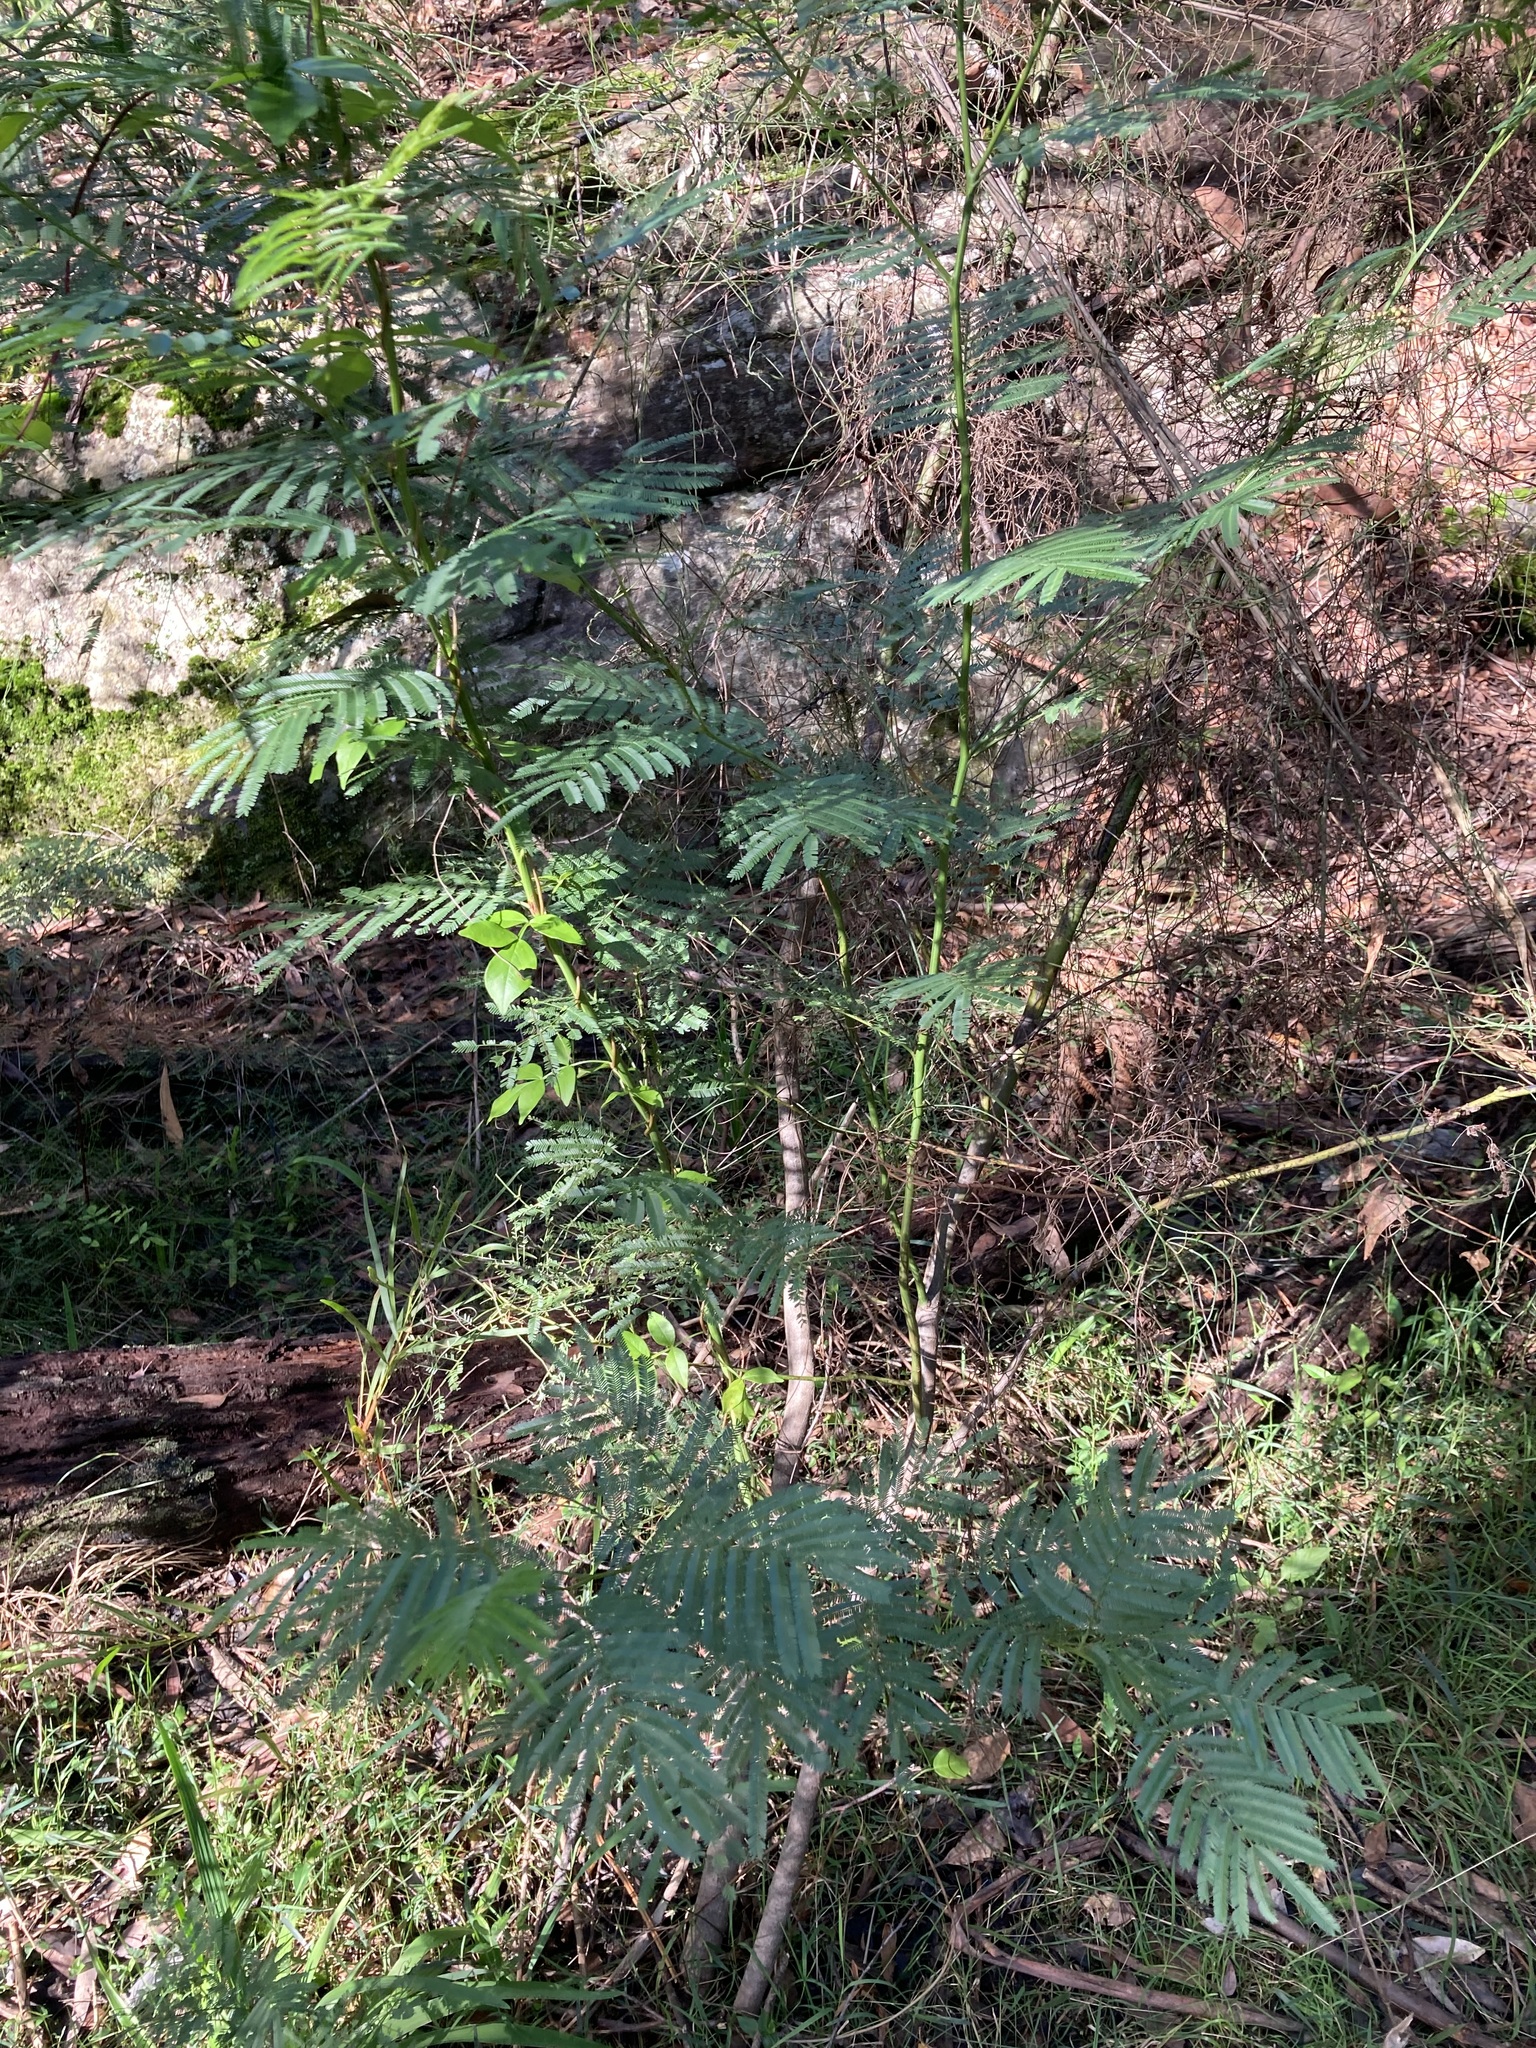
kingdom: Plantae
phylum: Tracheophyta
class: Magnoliopsida
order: Fabales
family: Fabaceae
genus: Acacia
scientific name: Acacia parramattensis
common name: Sydney green wattle
